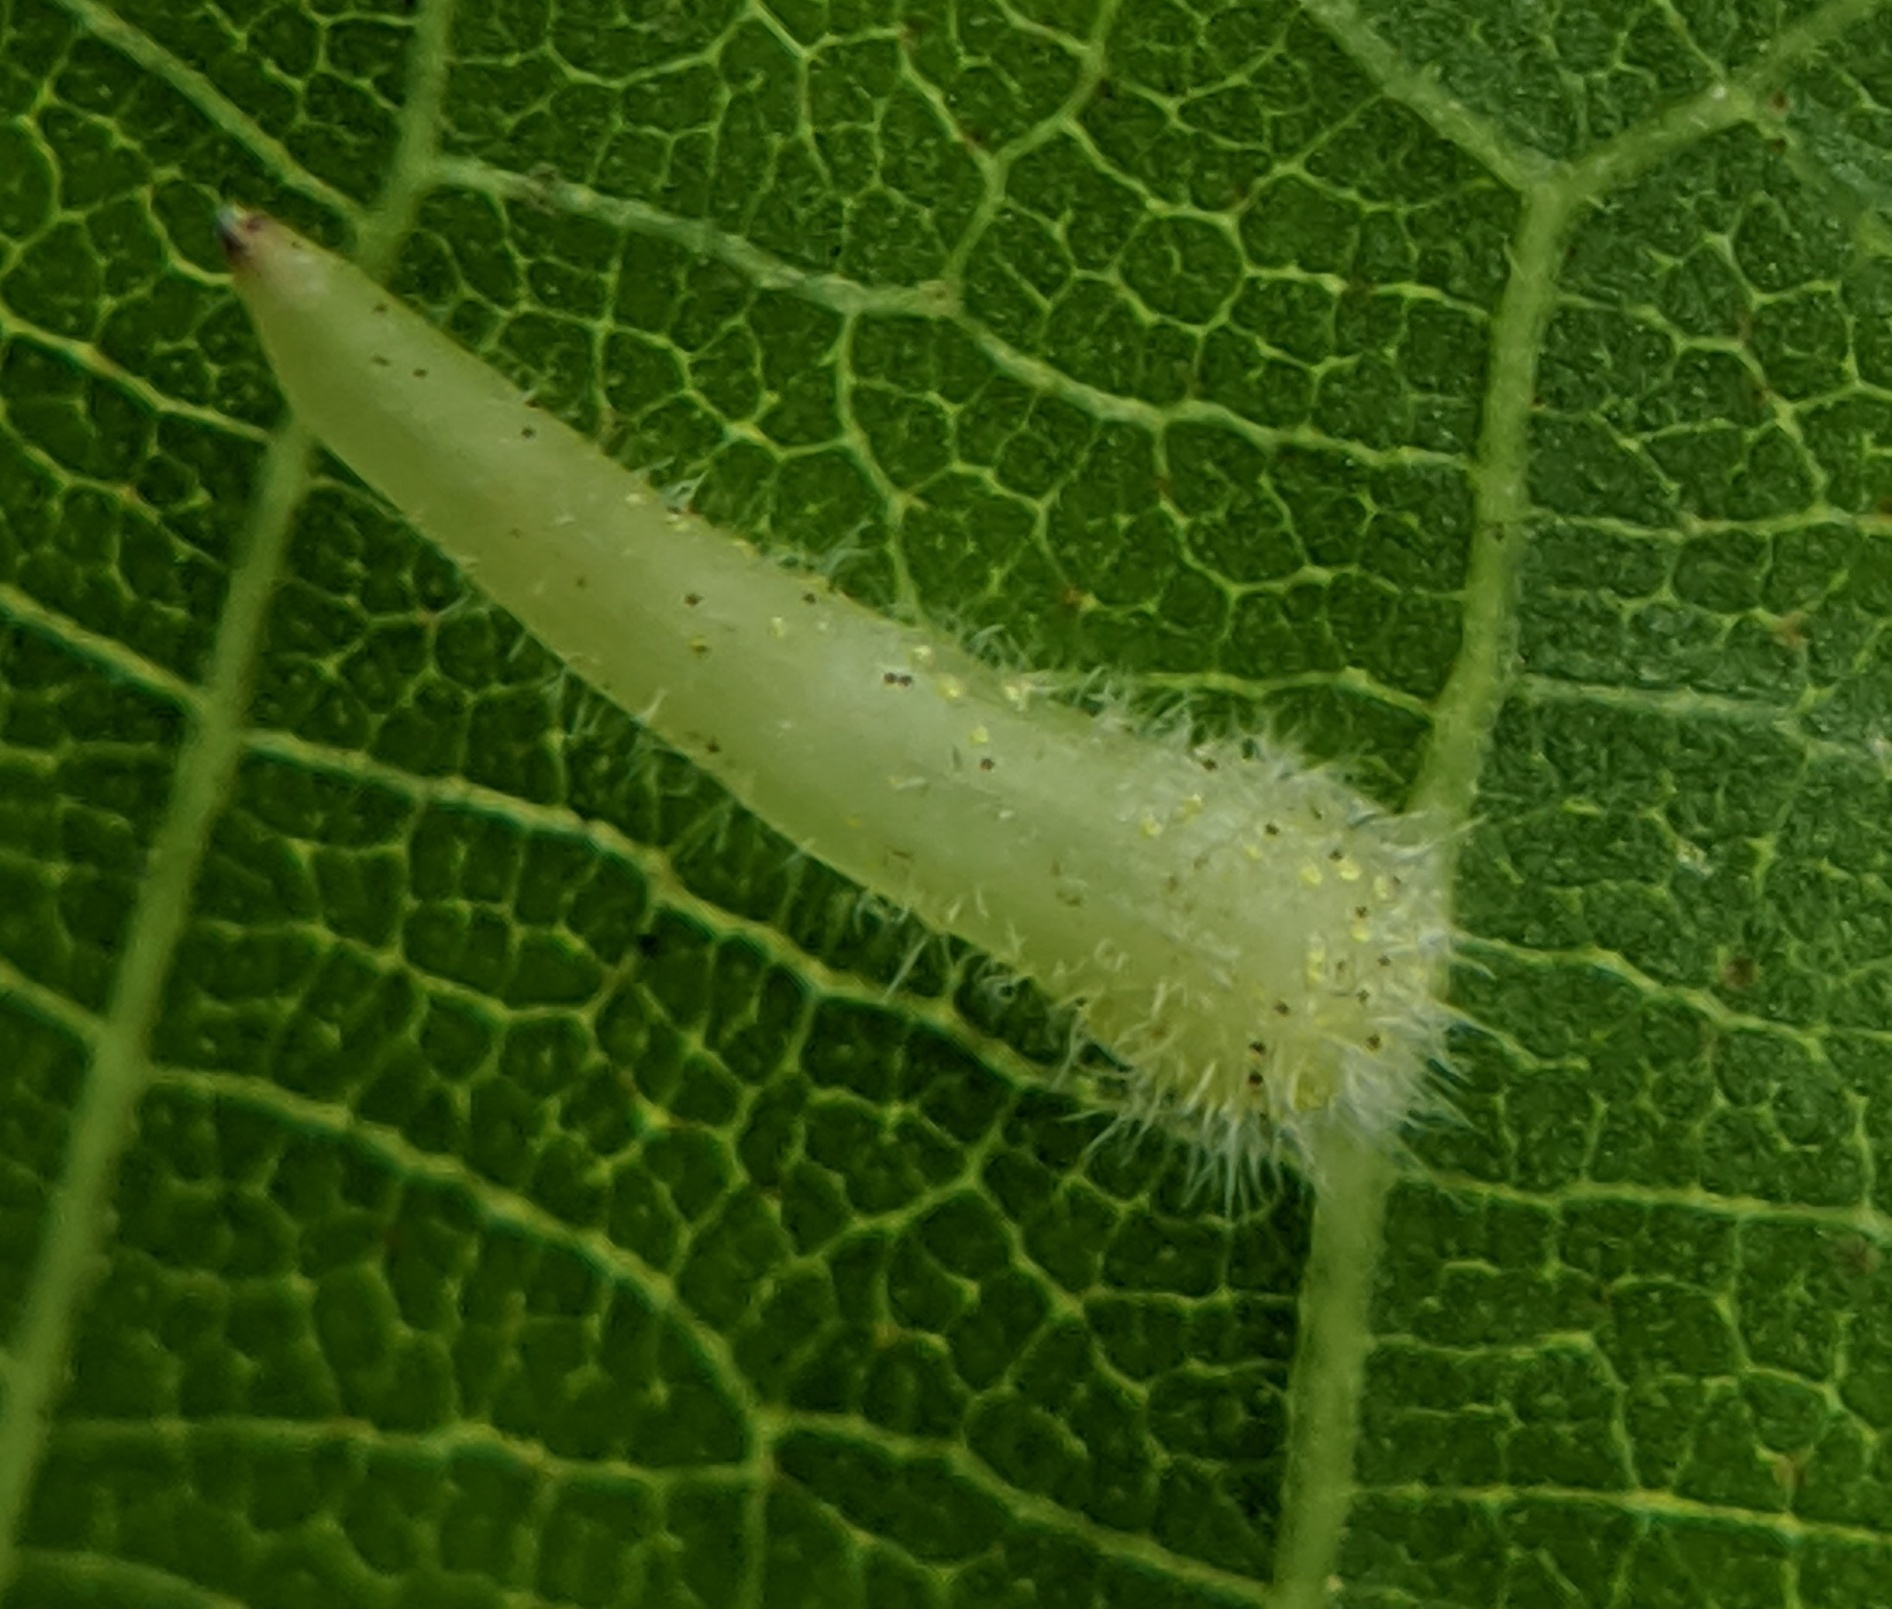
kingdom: Animalia
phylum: Arthropoda
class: Insecta
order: Diptera
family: Cecidomyiidae
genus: Caryomyia
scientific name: Caryomyia spinulosa
